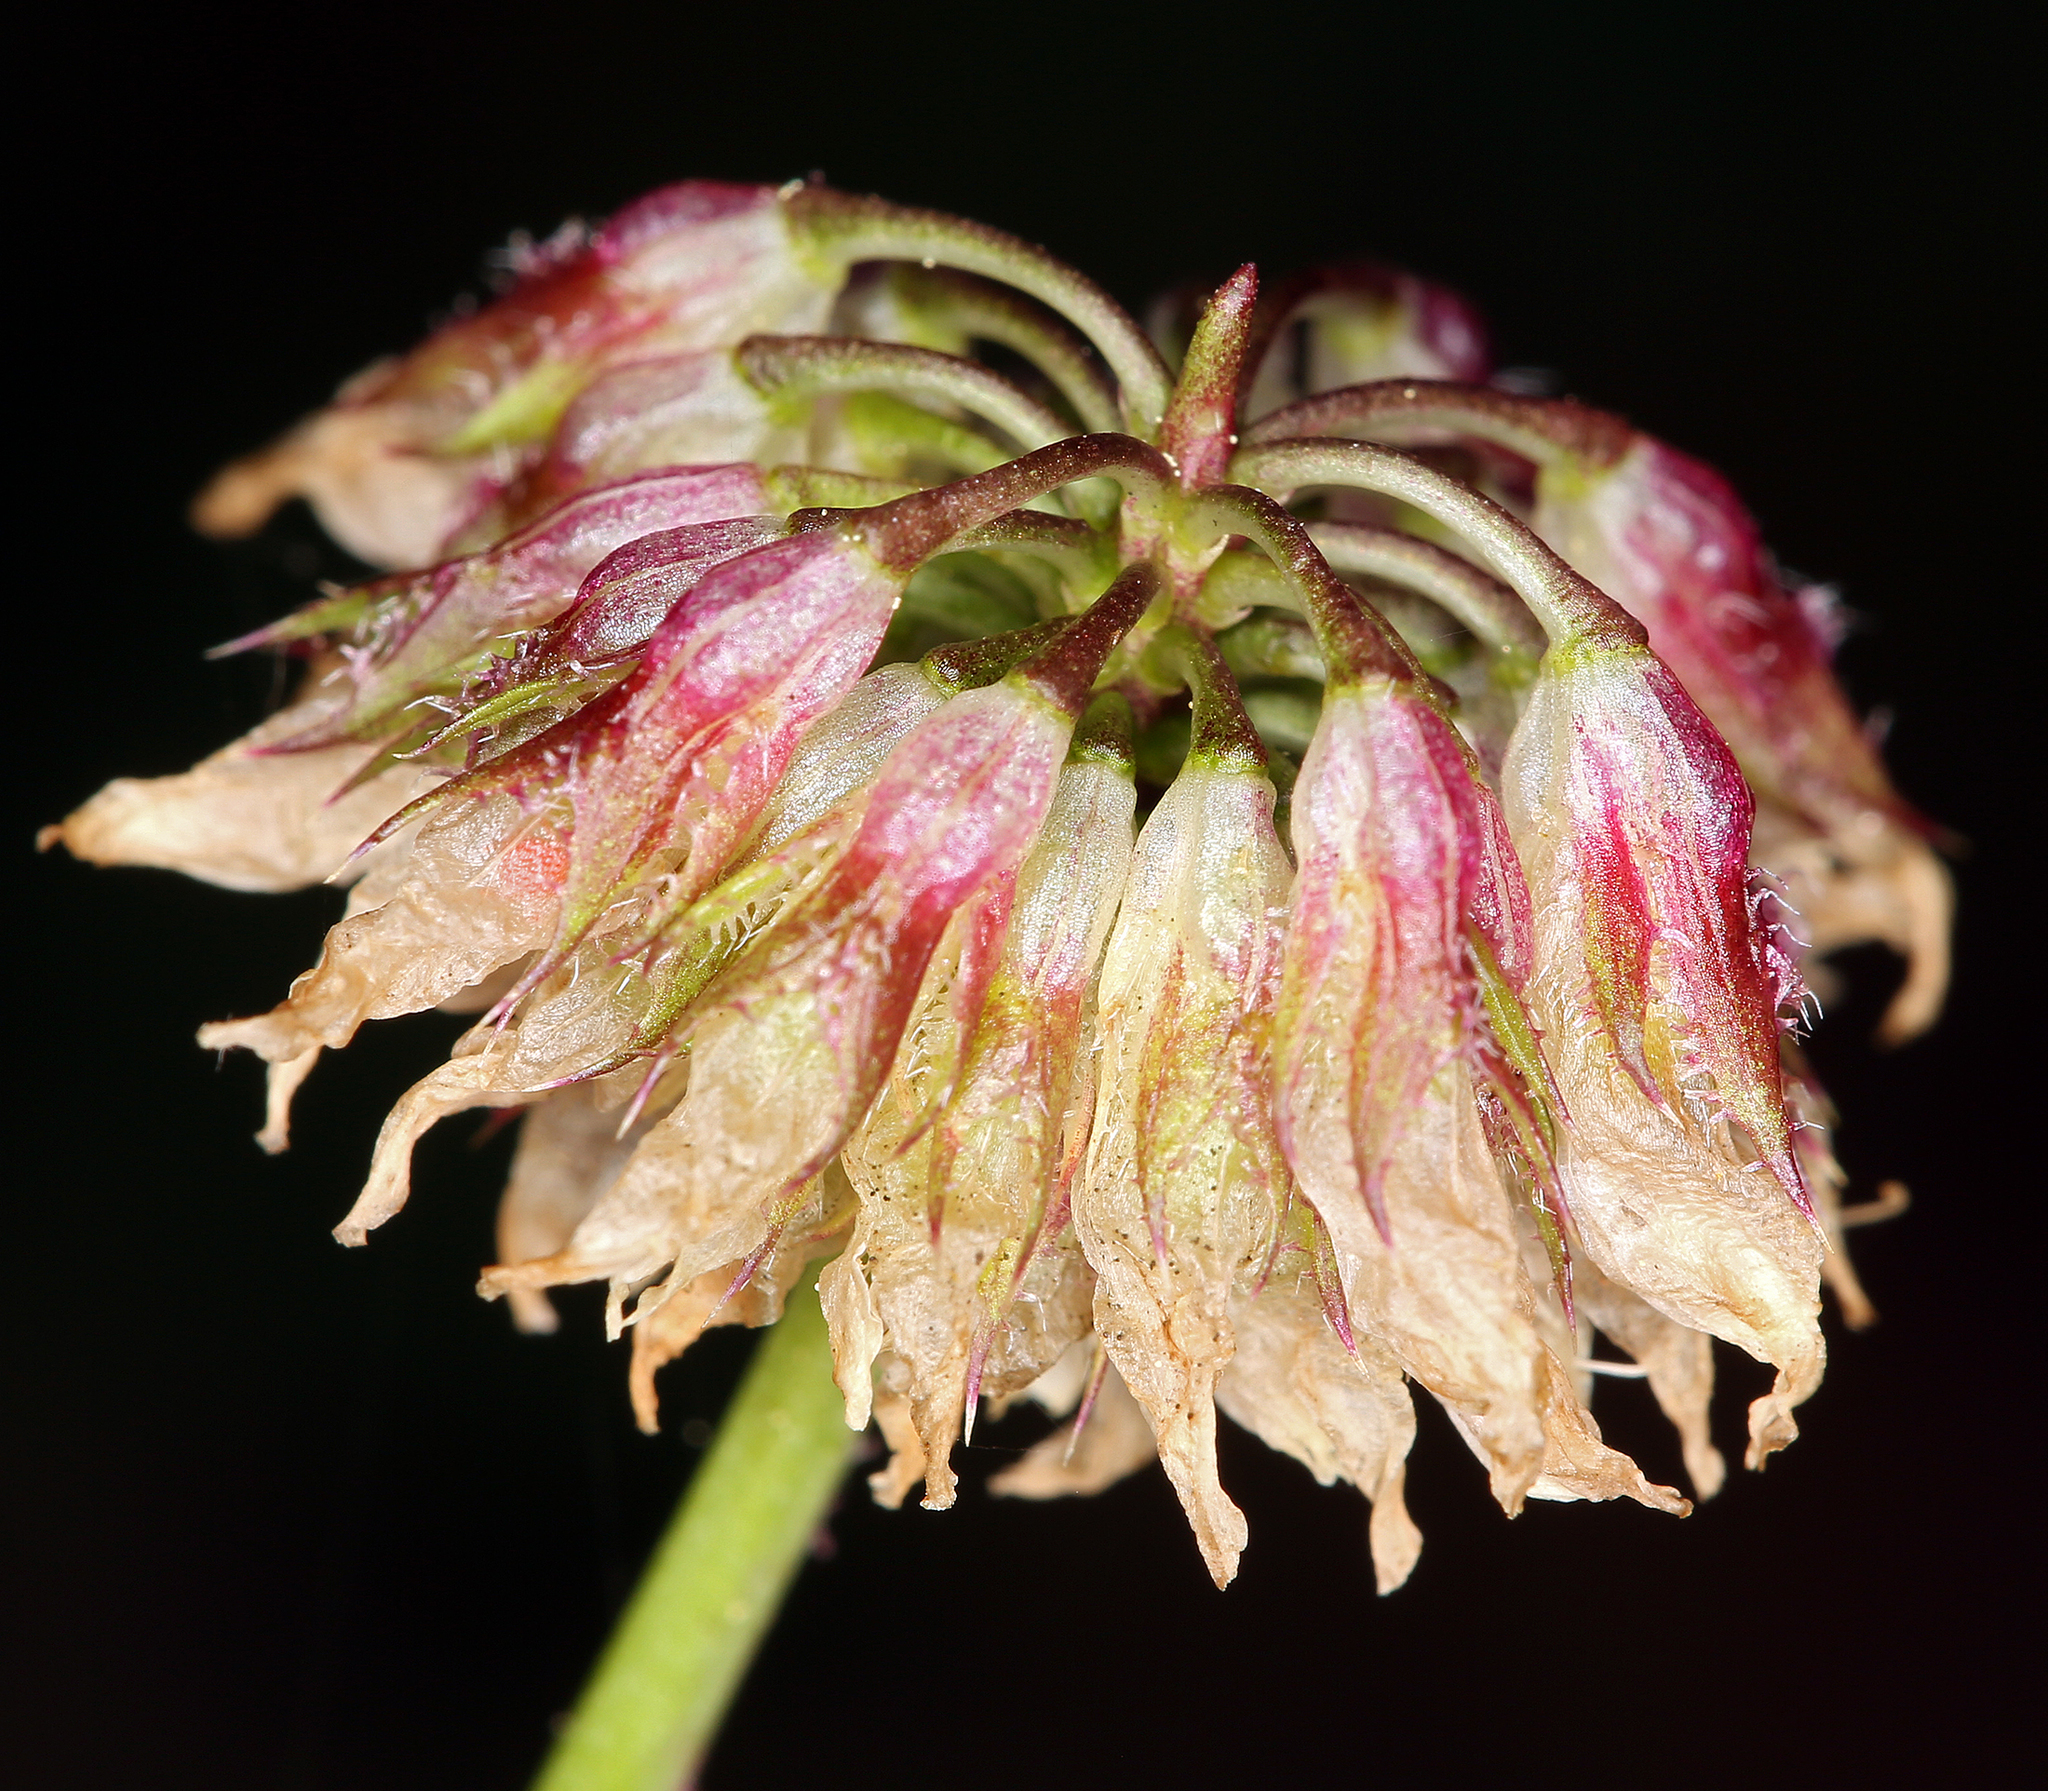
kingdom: Plantae
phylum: Tracheophyta
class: Magnoliopsida
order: Fabales
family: Fabaceae
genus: Trifolium
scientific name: Trifolium ciliolatum
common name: Foothill clover
